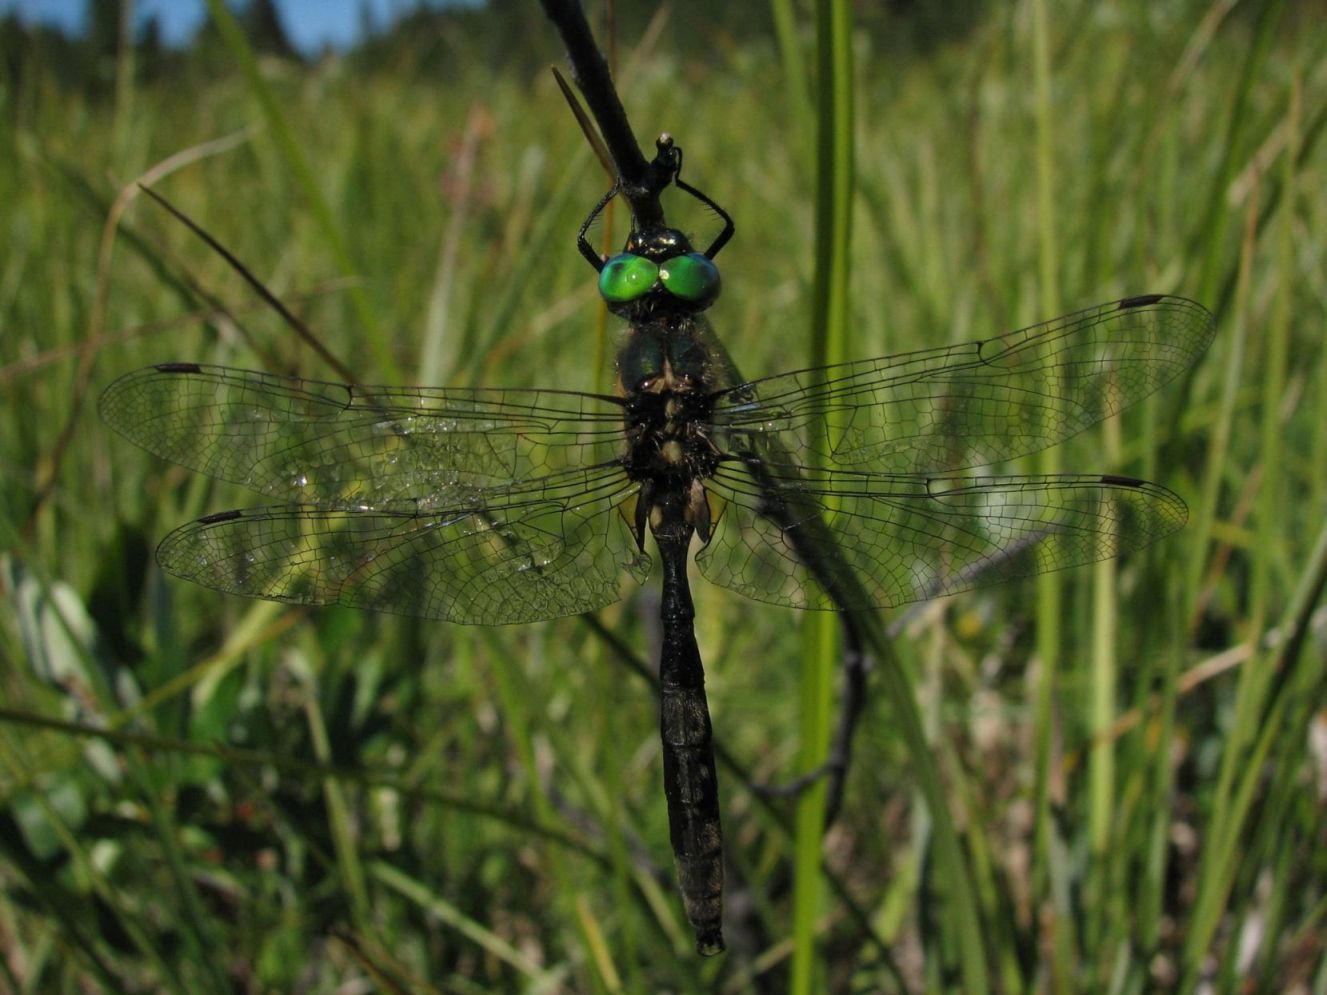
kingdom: Animalia
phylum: Arthropoda
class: Insecta
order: Odonata
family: Corduliidae
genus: Somatochlora
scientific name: Somatochlora semicircularis
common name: Mountain emerald
